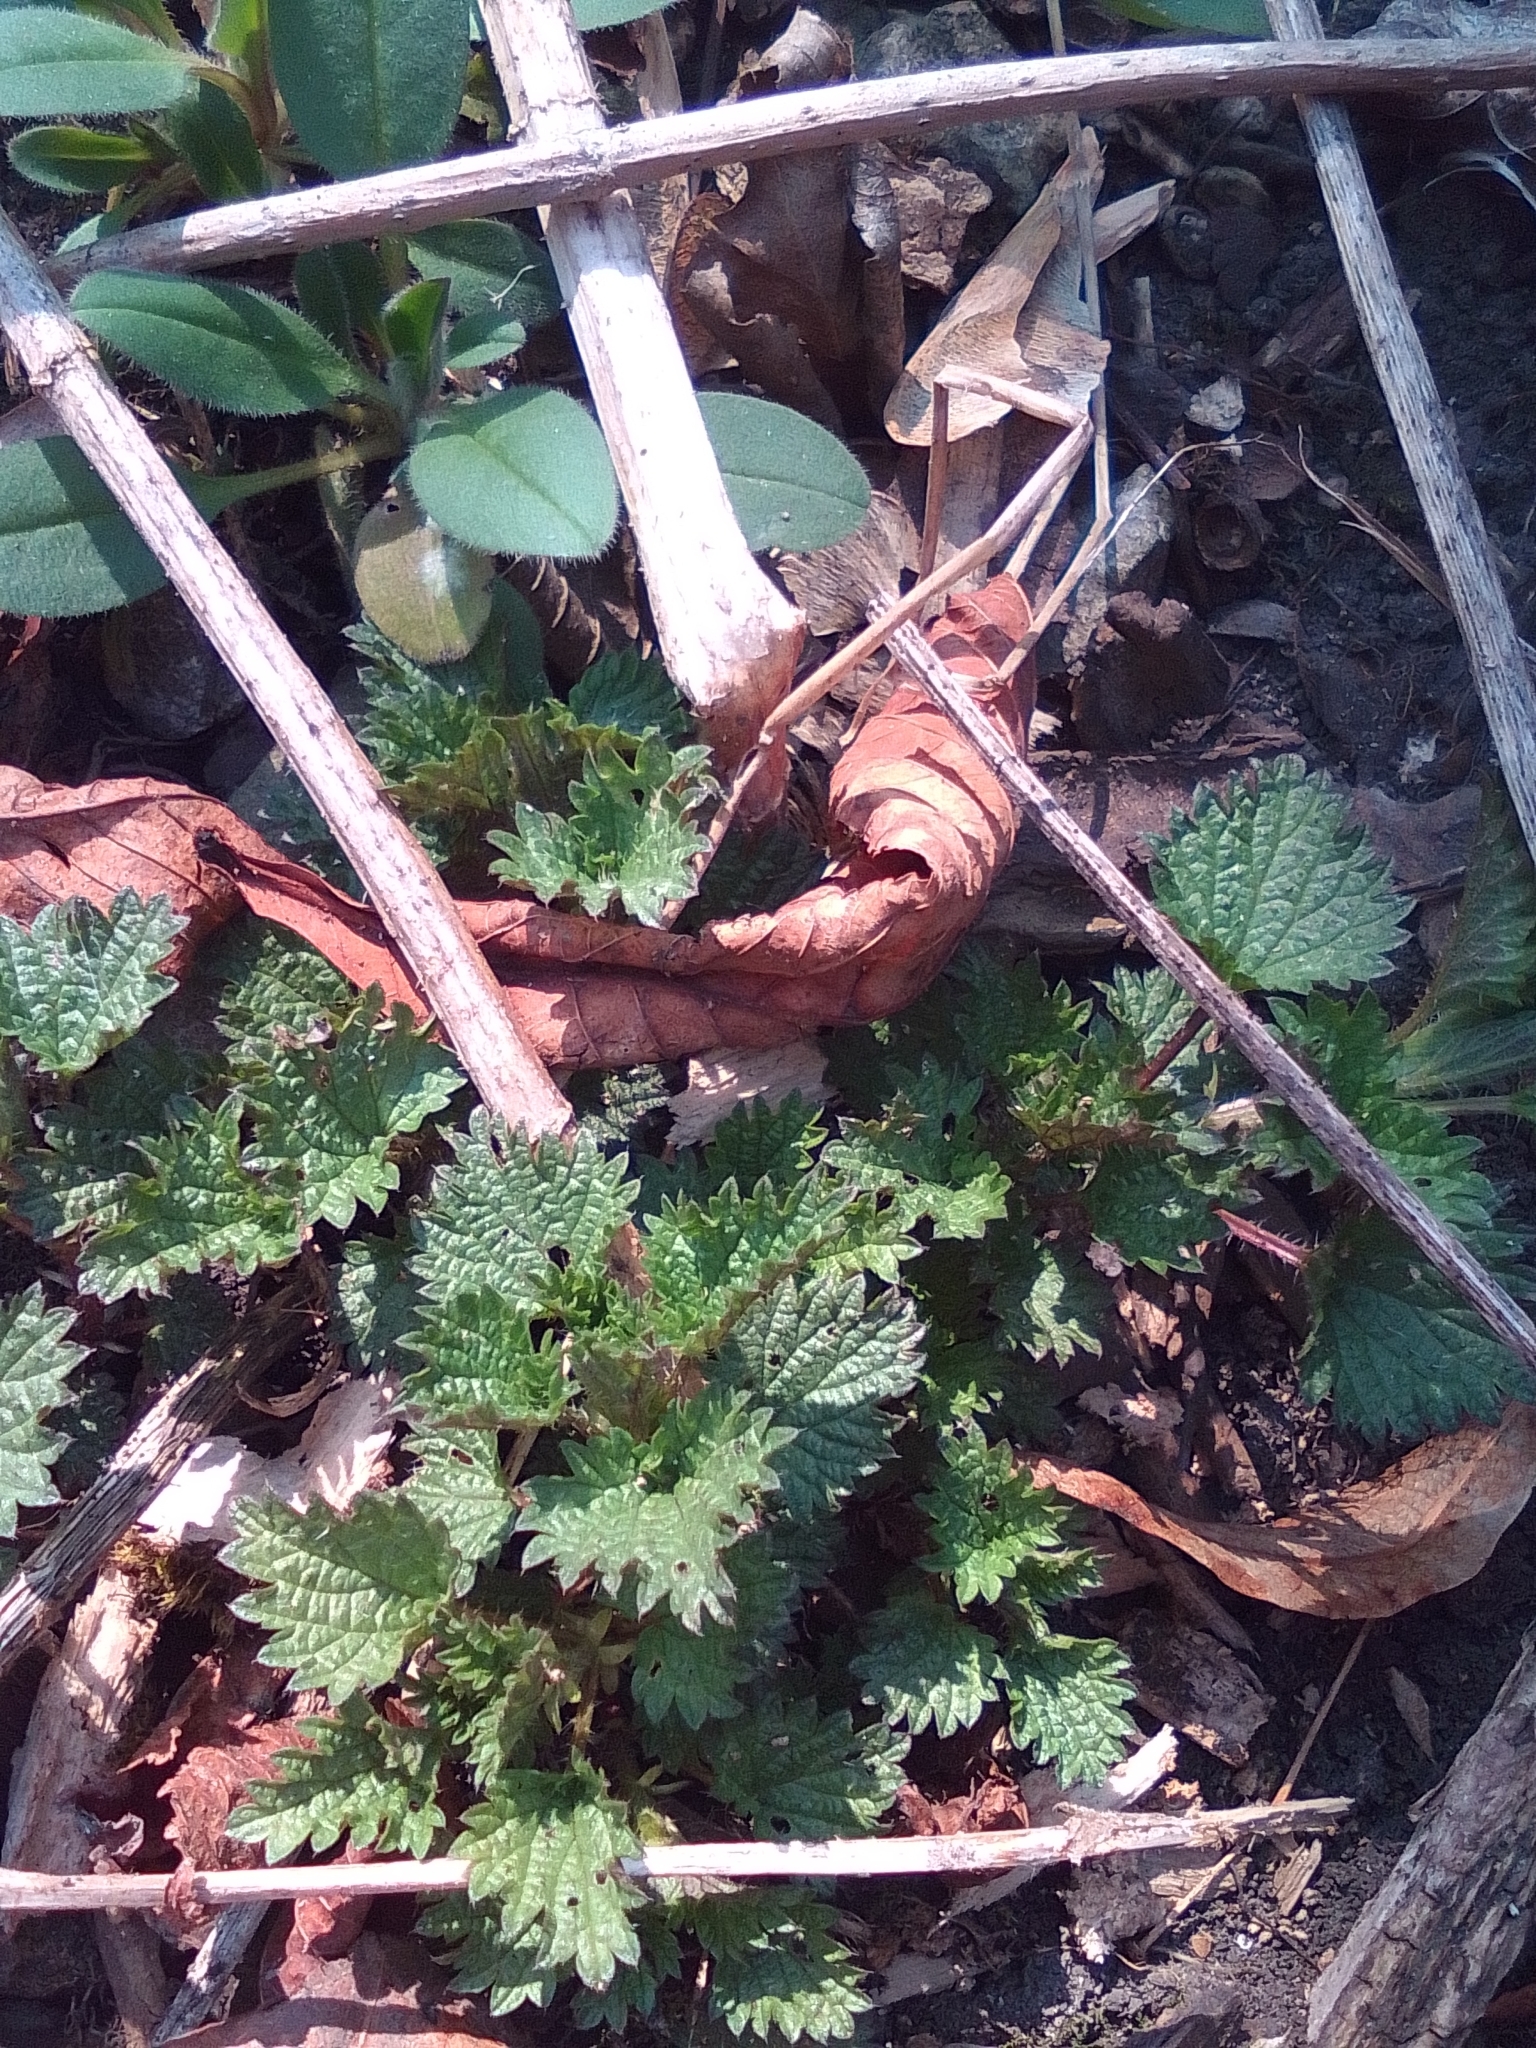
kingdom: Plantae
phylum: Tracheophyta
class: Magnoliopsida
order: Rosales
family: Urticaceae
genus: Urtica
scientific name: Urtica dioica
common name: Common nettle
